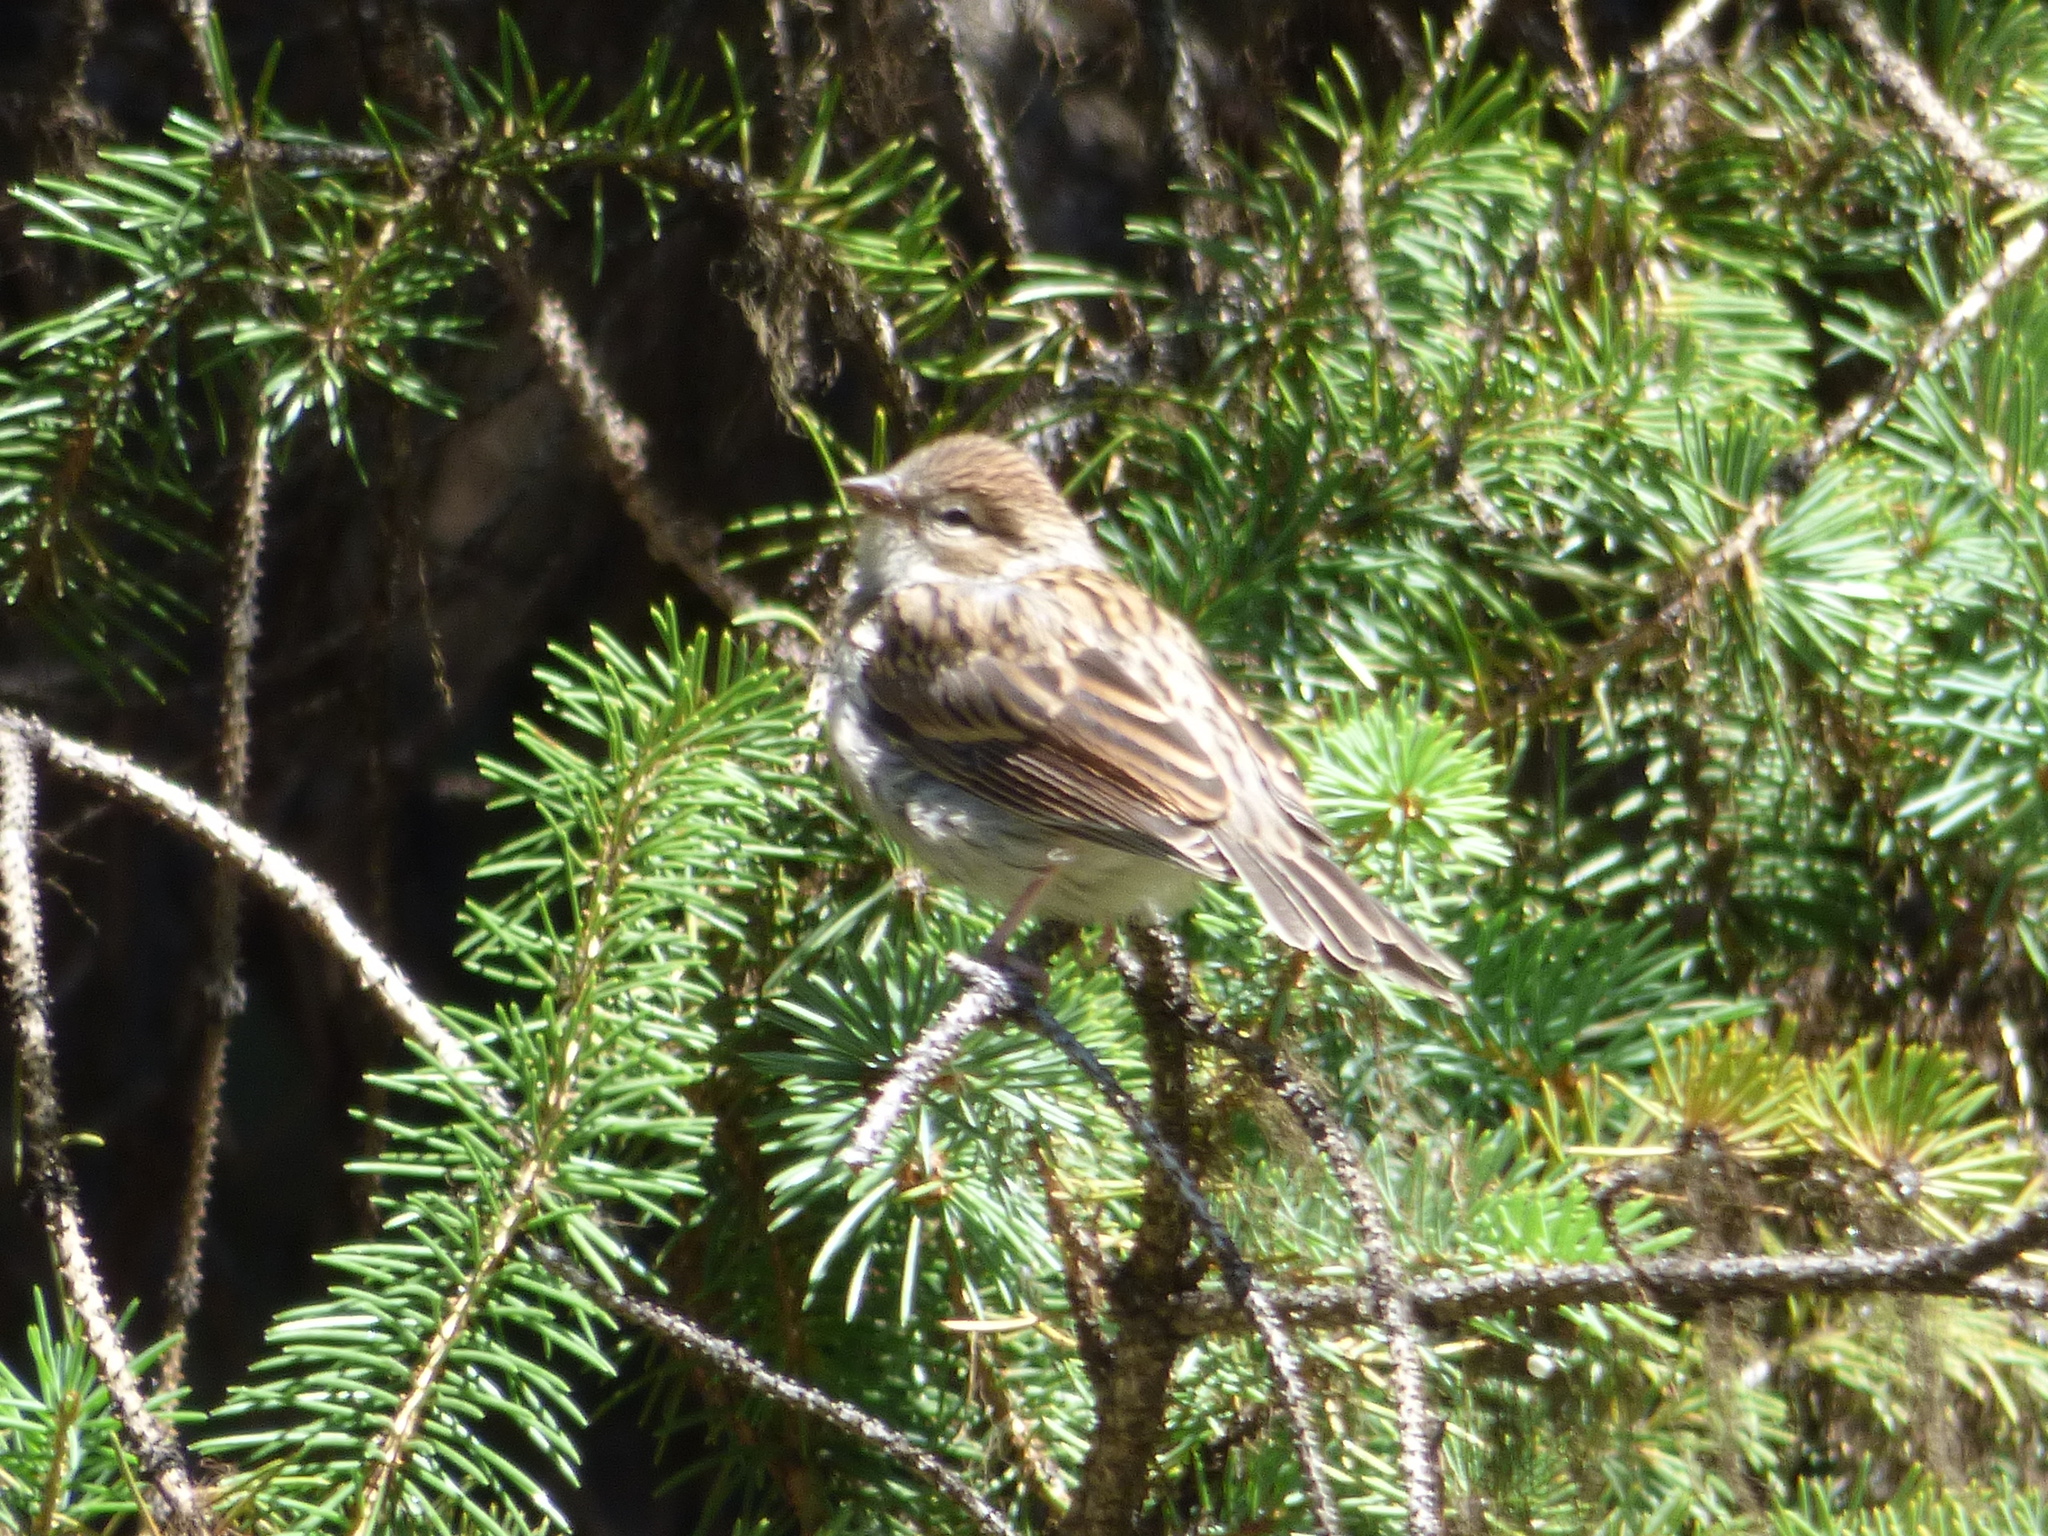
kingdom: Animalia
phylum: Chordata
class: Aves
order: Passeriformes
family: Passerellidae
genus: Spizella
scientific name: Spizella passerina
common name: Chipping sparrow
